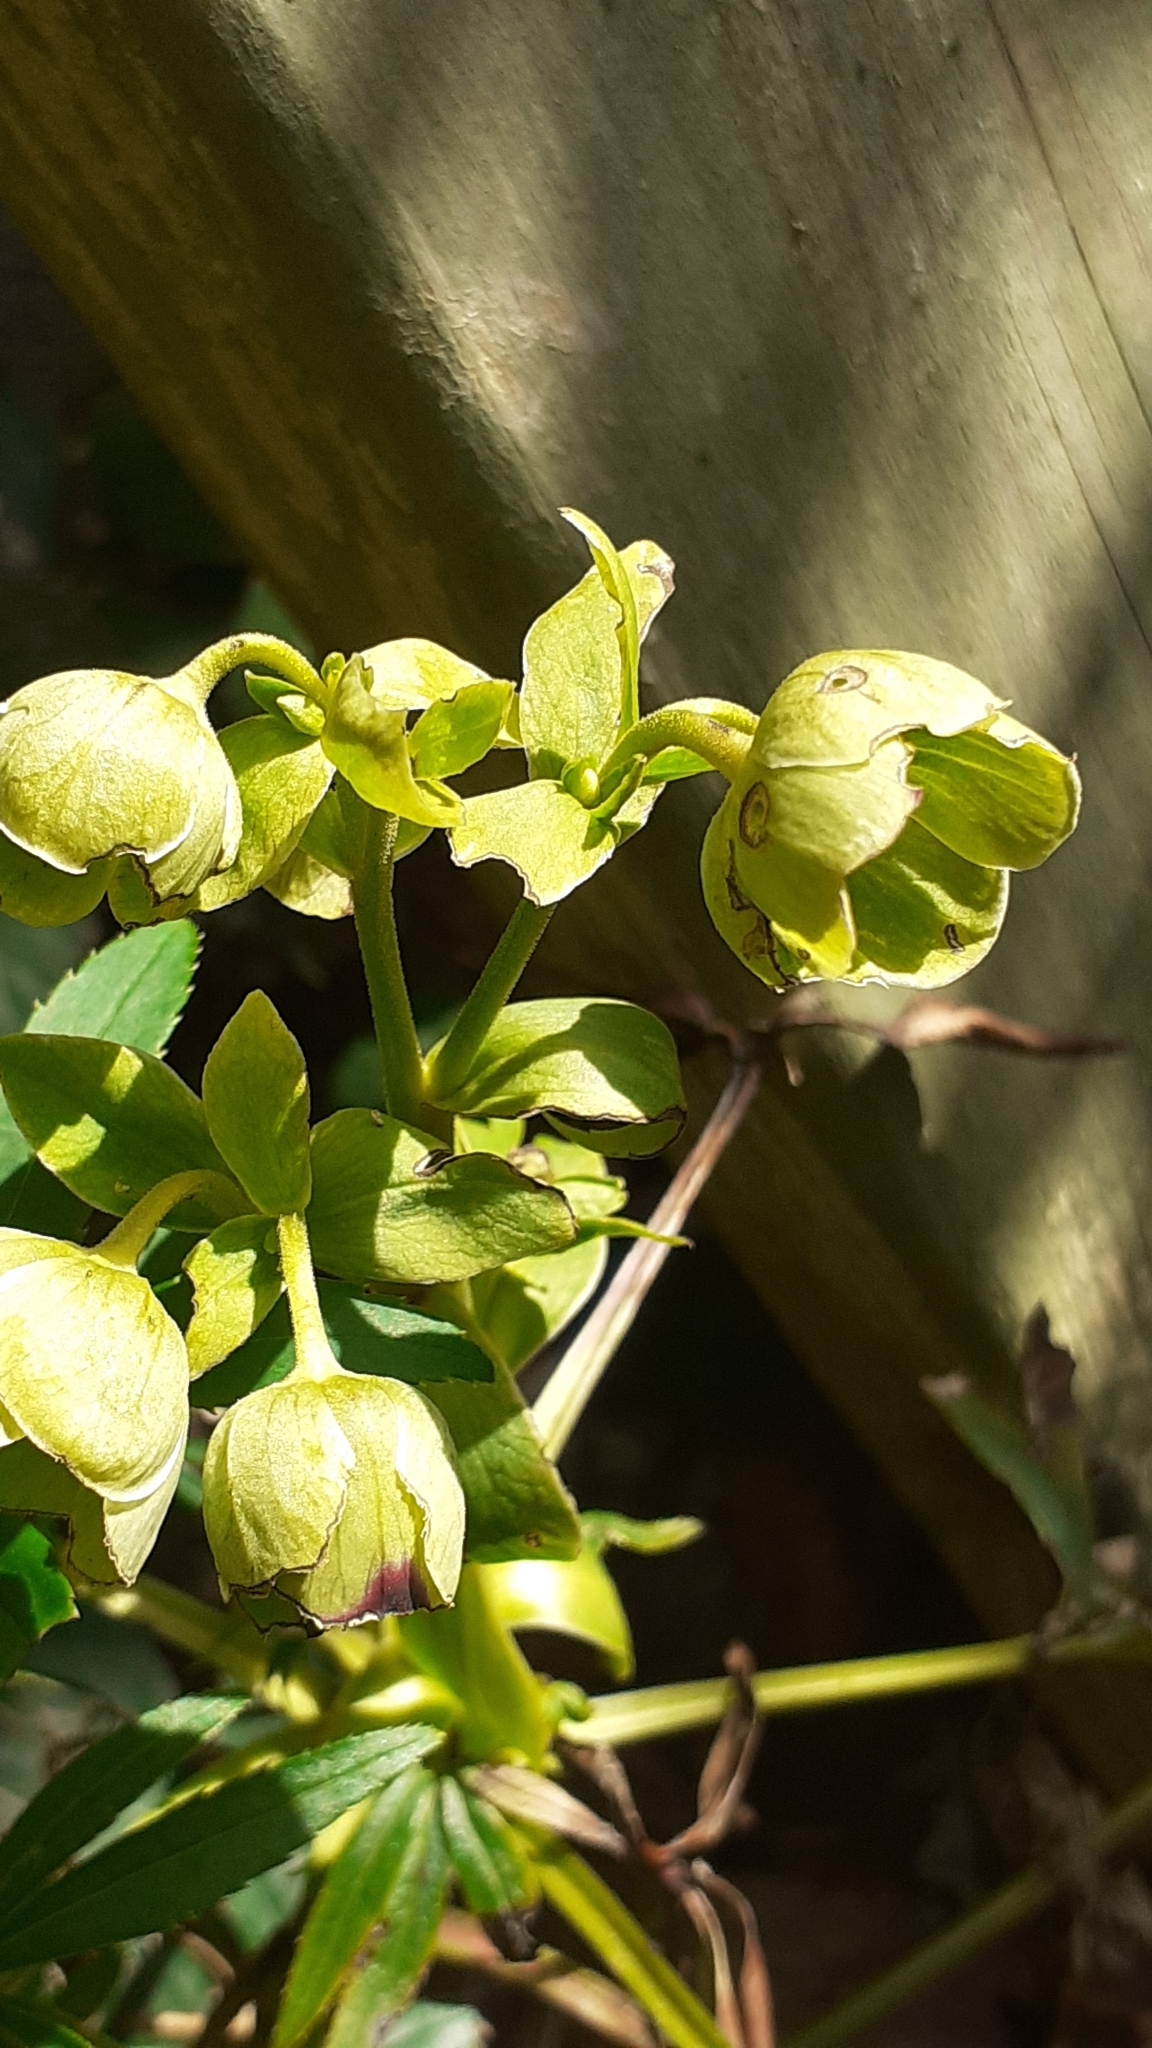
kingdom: Plantae
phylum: Tracheophyta
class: Magnoliopsida
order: Ranunculales
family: Ranunculaceae
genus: Helleborus
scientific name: Helleborus foetidus
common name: Stinking hellebore
